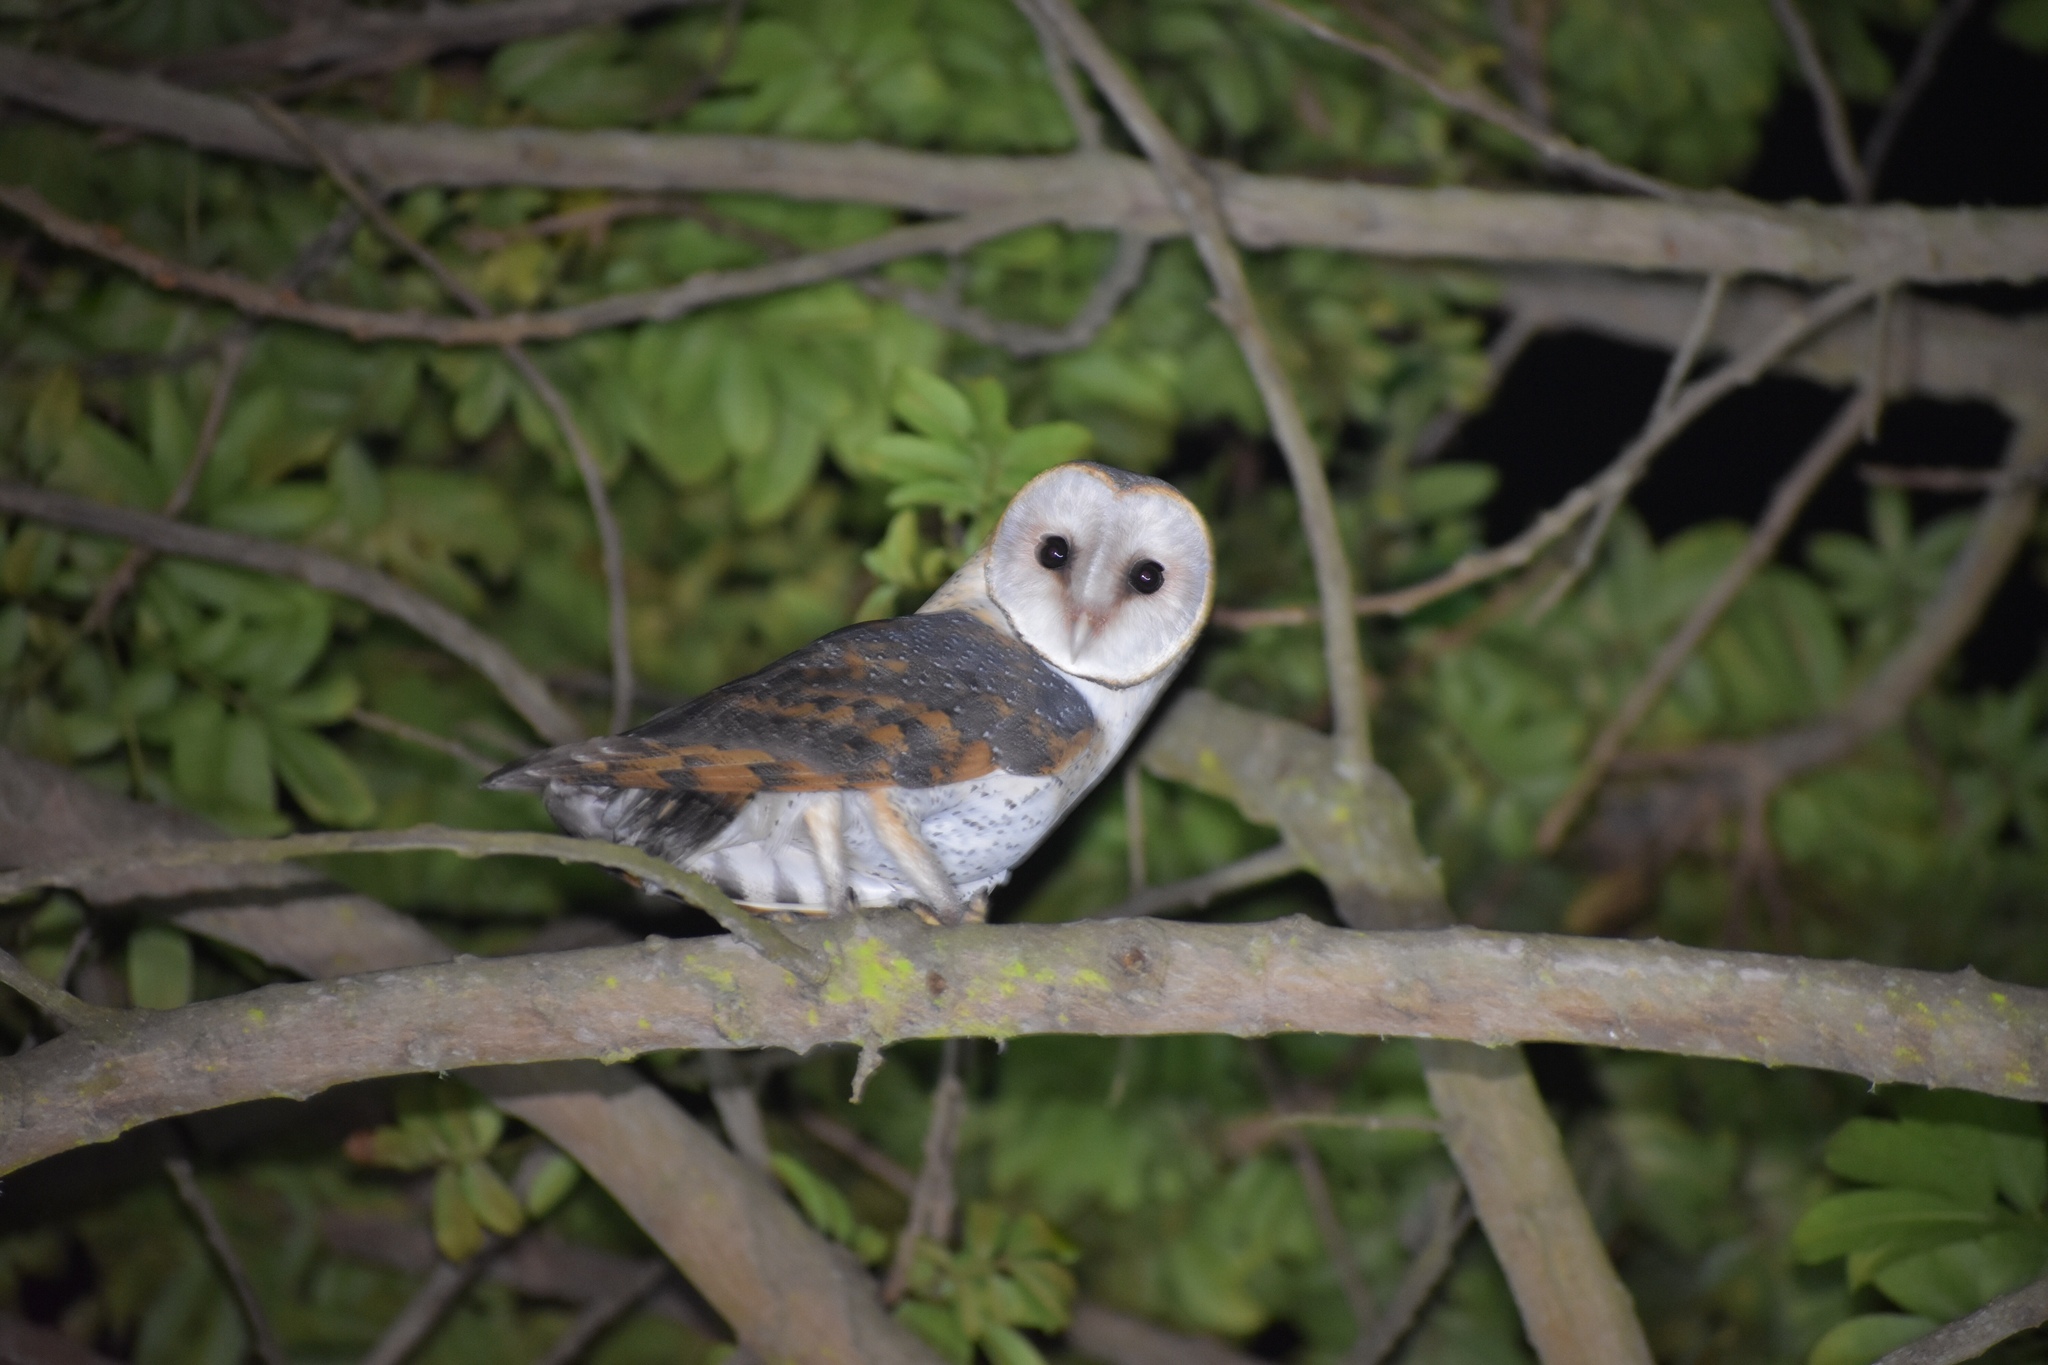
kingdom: Animalia
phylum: Chordata
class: Aves
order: Strigiformes
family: Tytonidae
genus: Tyto
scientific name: Tyto alba
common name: Barn owl
